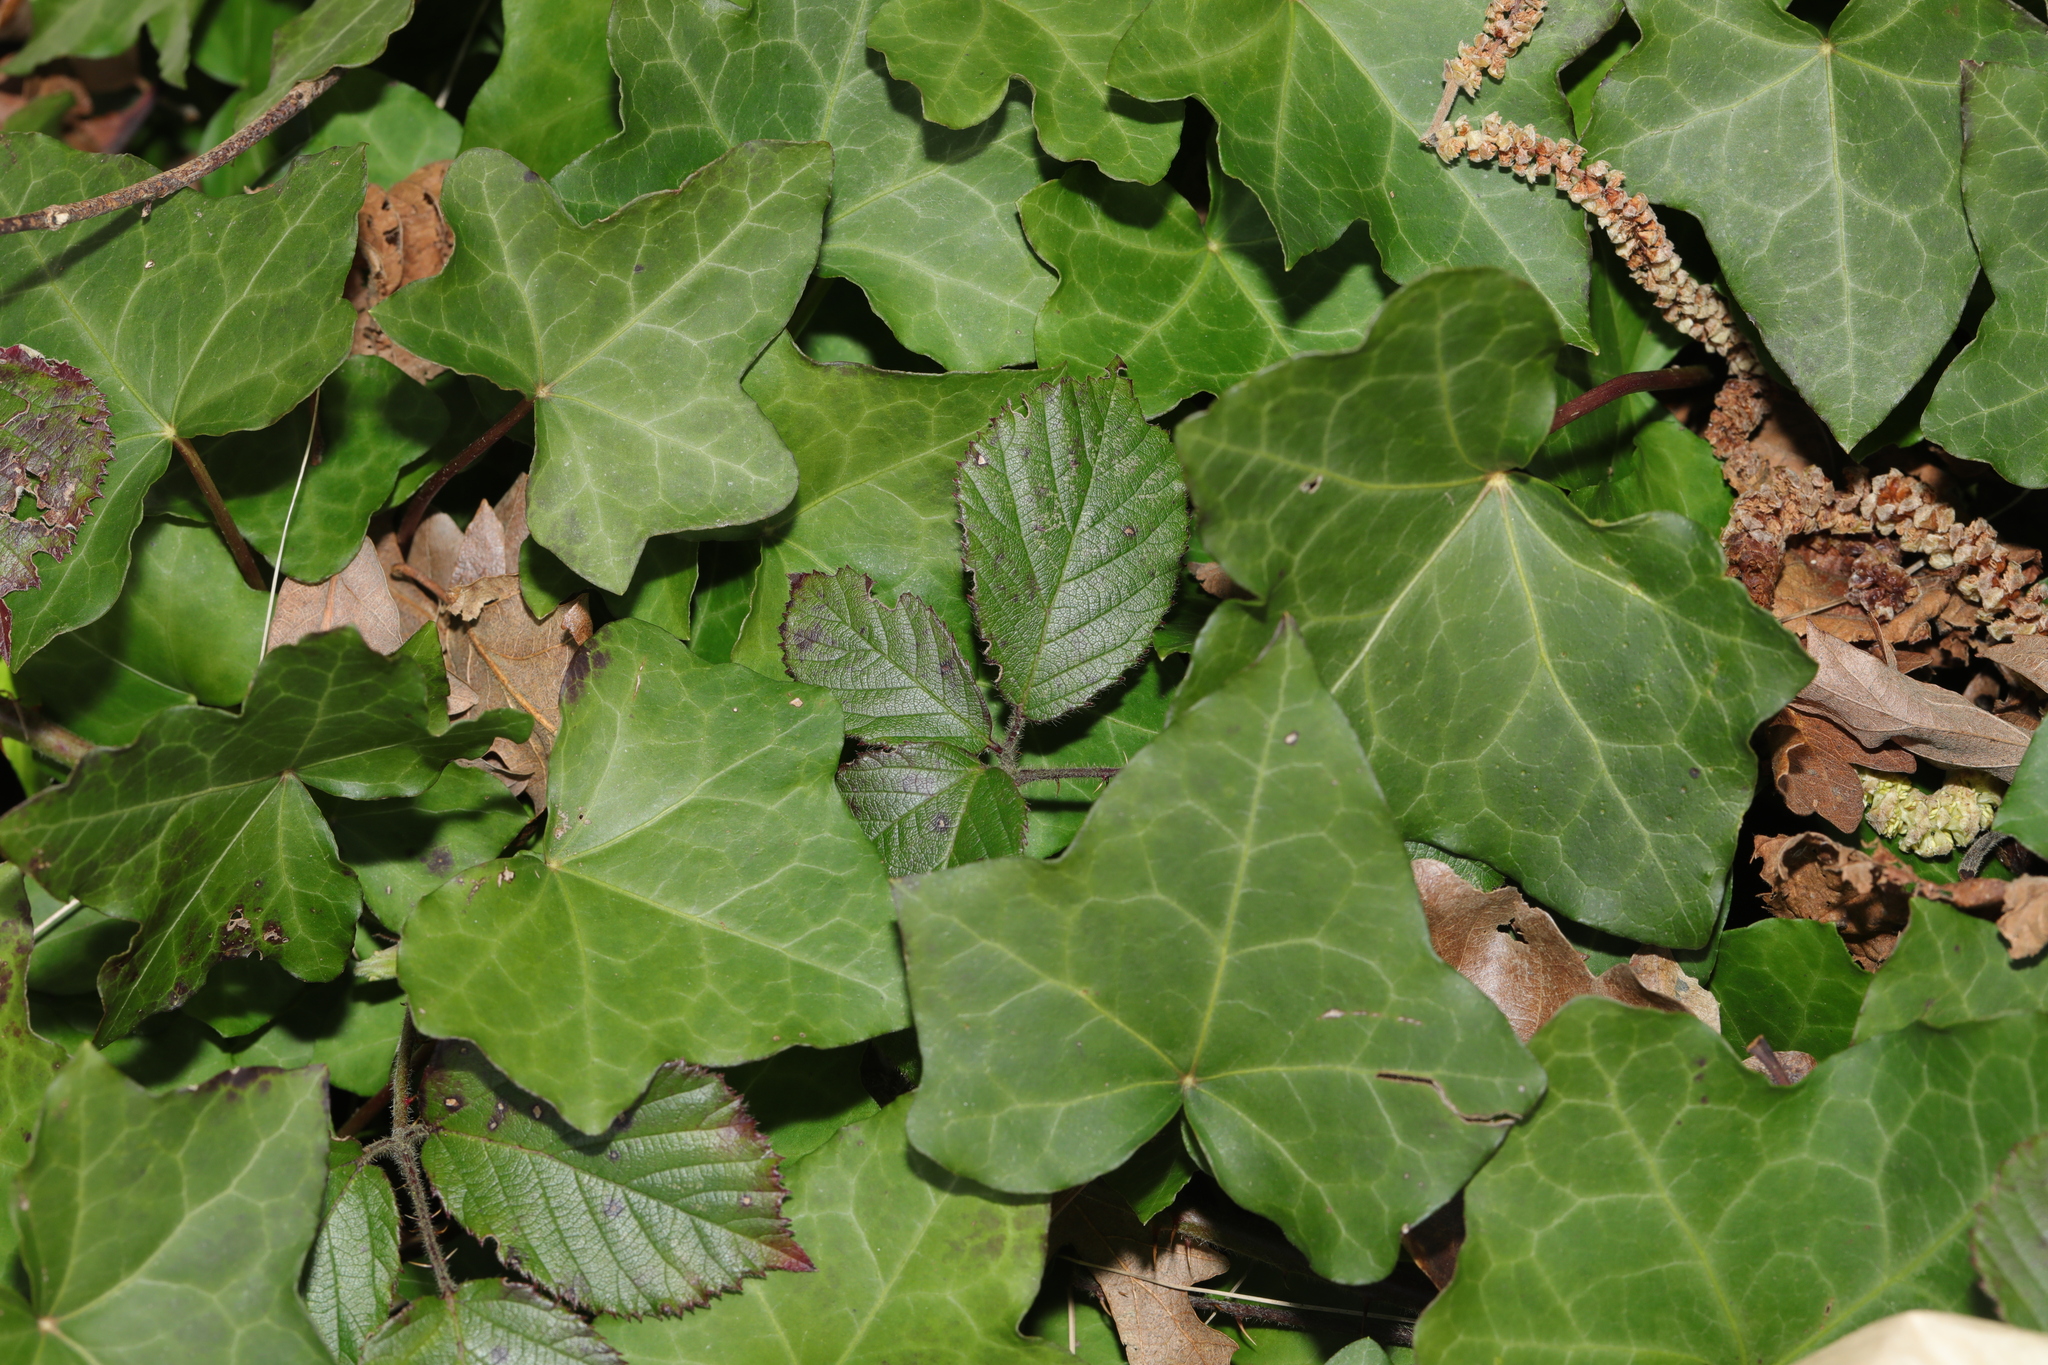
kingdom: Plantae
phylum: Tracheophyta
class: Magnoliopsida
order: Apiales
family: Araliaceae
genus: Hedera
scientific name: Hedera helix
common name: Ivy
